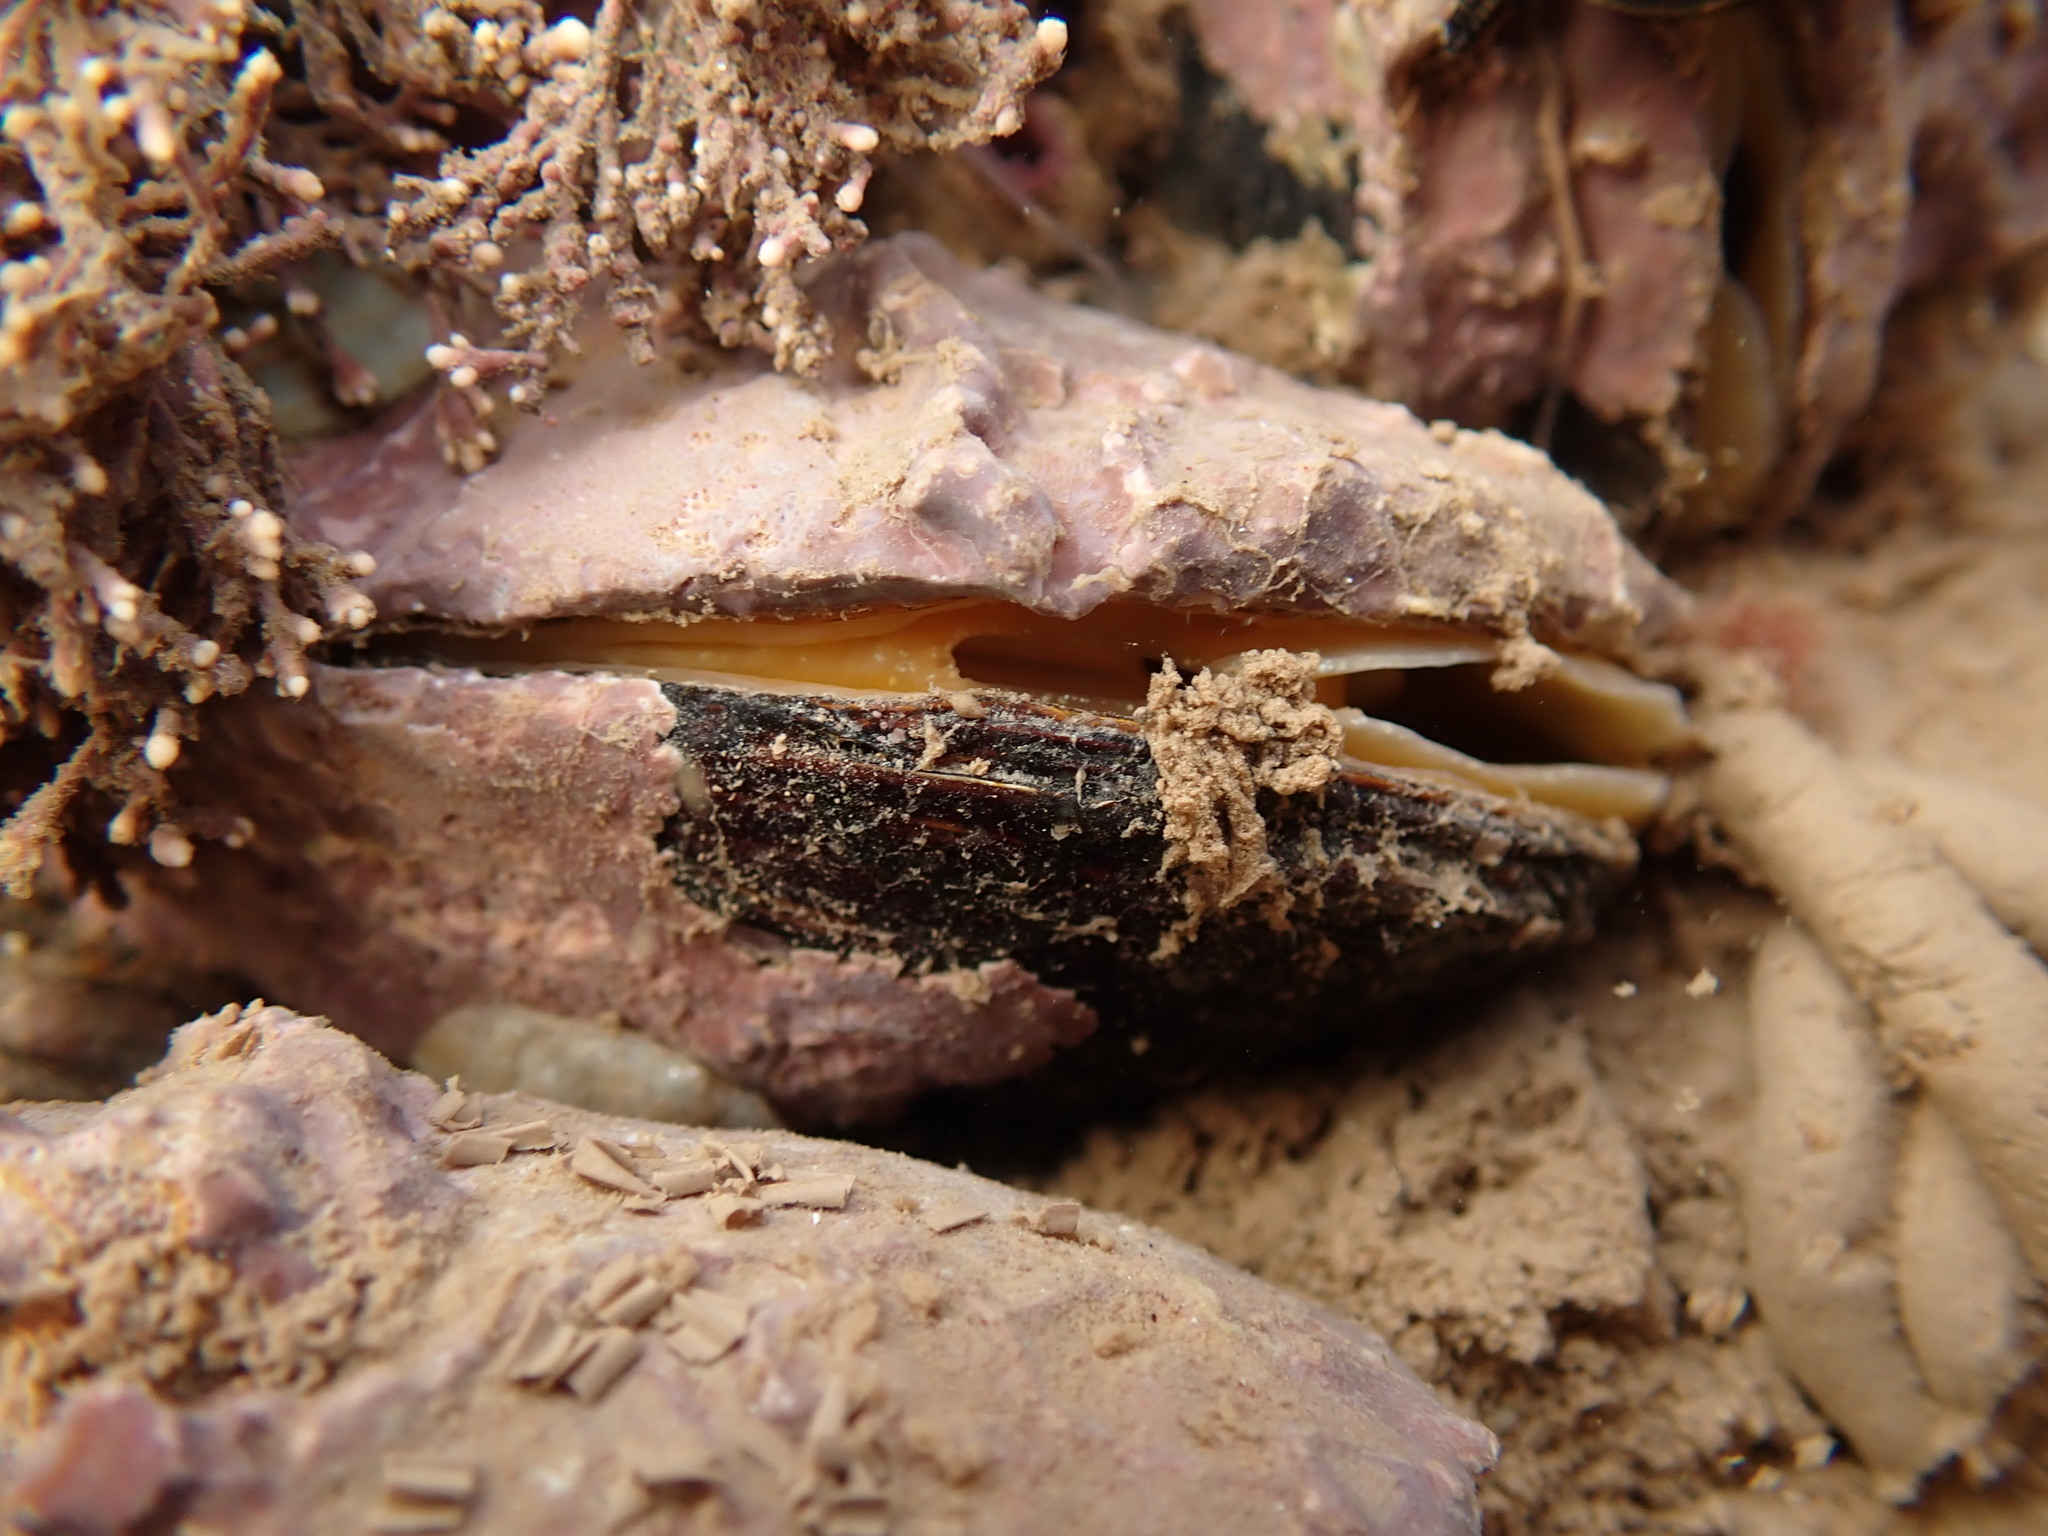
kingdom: Animalia
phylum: Mollusca
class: Bivalvia
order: Mytilida
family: Mytilidae
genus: Modiolus
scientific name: Modiolus modiolus
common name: Horse-mussel
